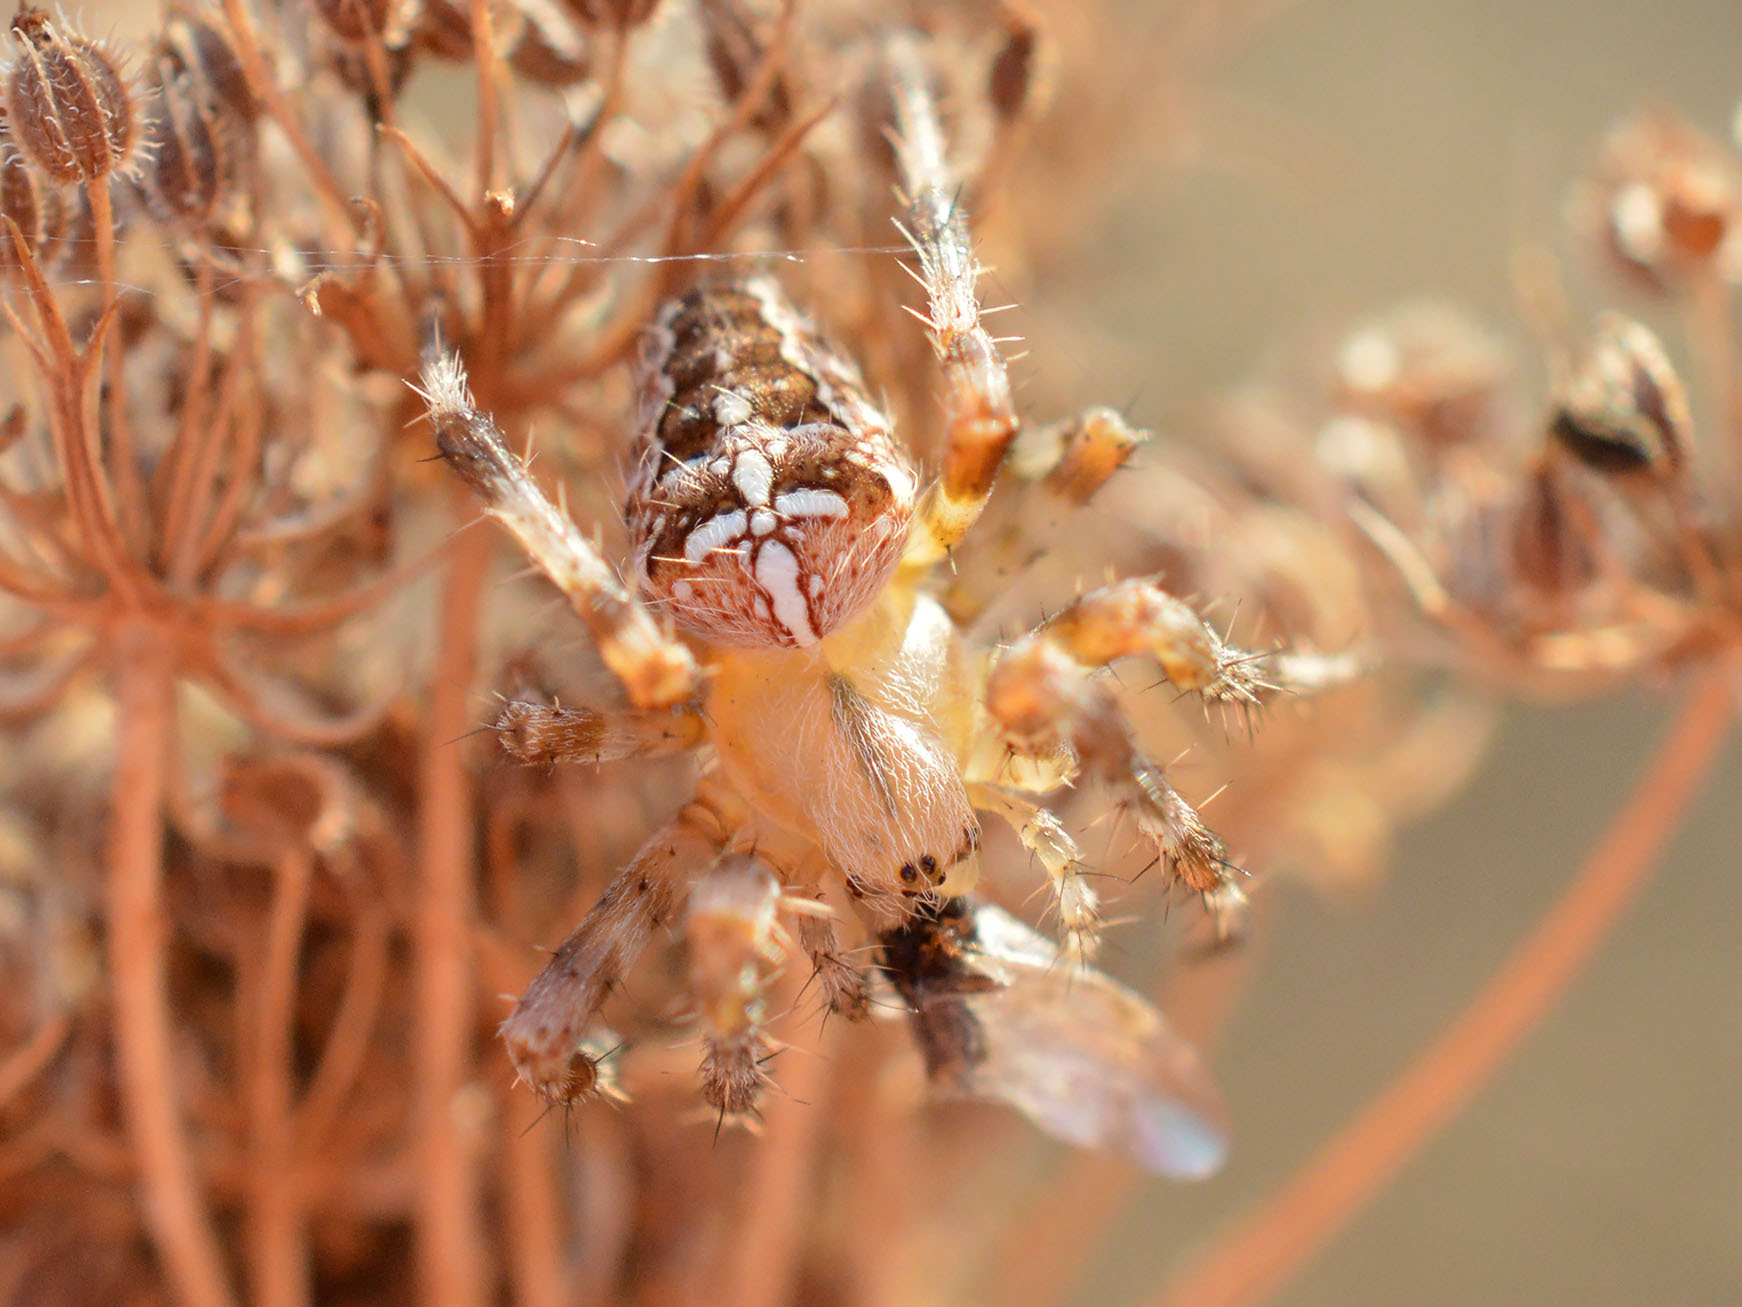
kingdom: Animalia
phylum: Arthropoda
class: Arachnida
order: Araneae
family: Araneidae
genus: Araneus
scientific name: Araneus diadematus
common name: Cross orbweaver
